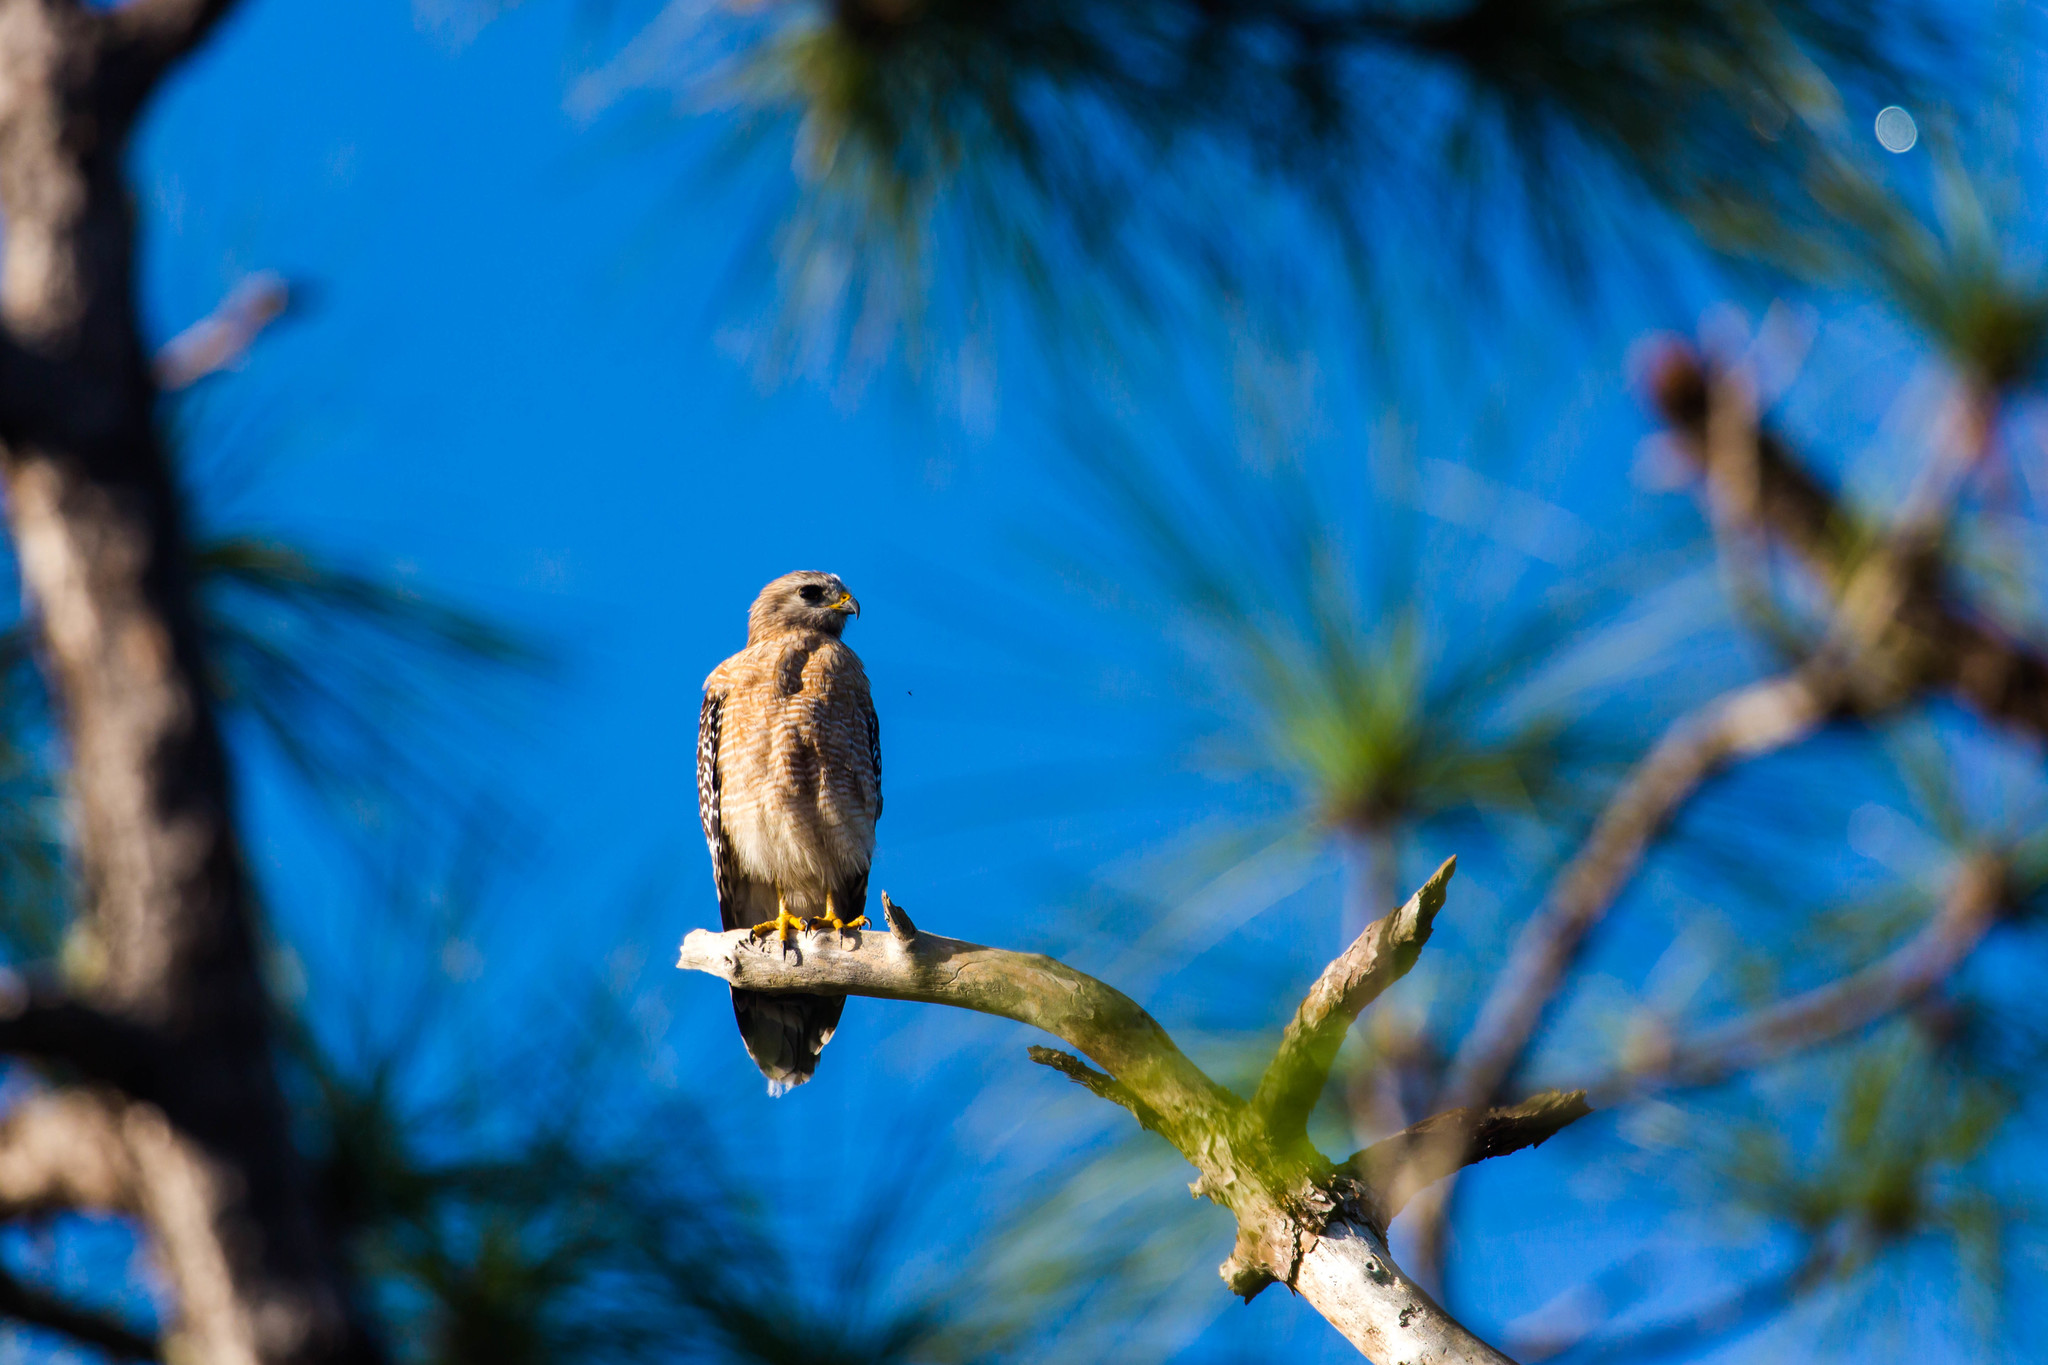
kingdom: Animalia
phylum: Chordata
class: Aves
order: Accipitriformes
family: Accipitridae
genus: Buteo
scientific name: Buteo lineatus
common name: Red-shouldered hawk
